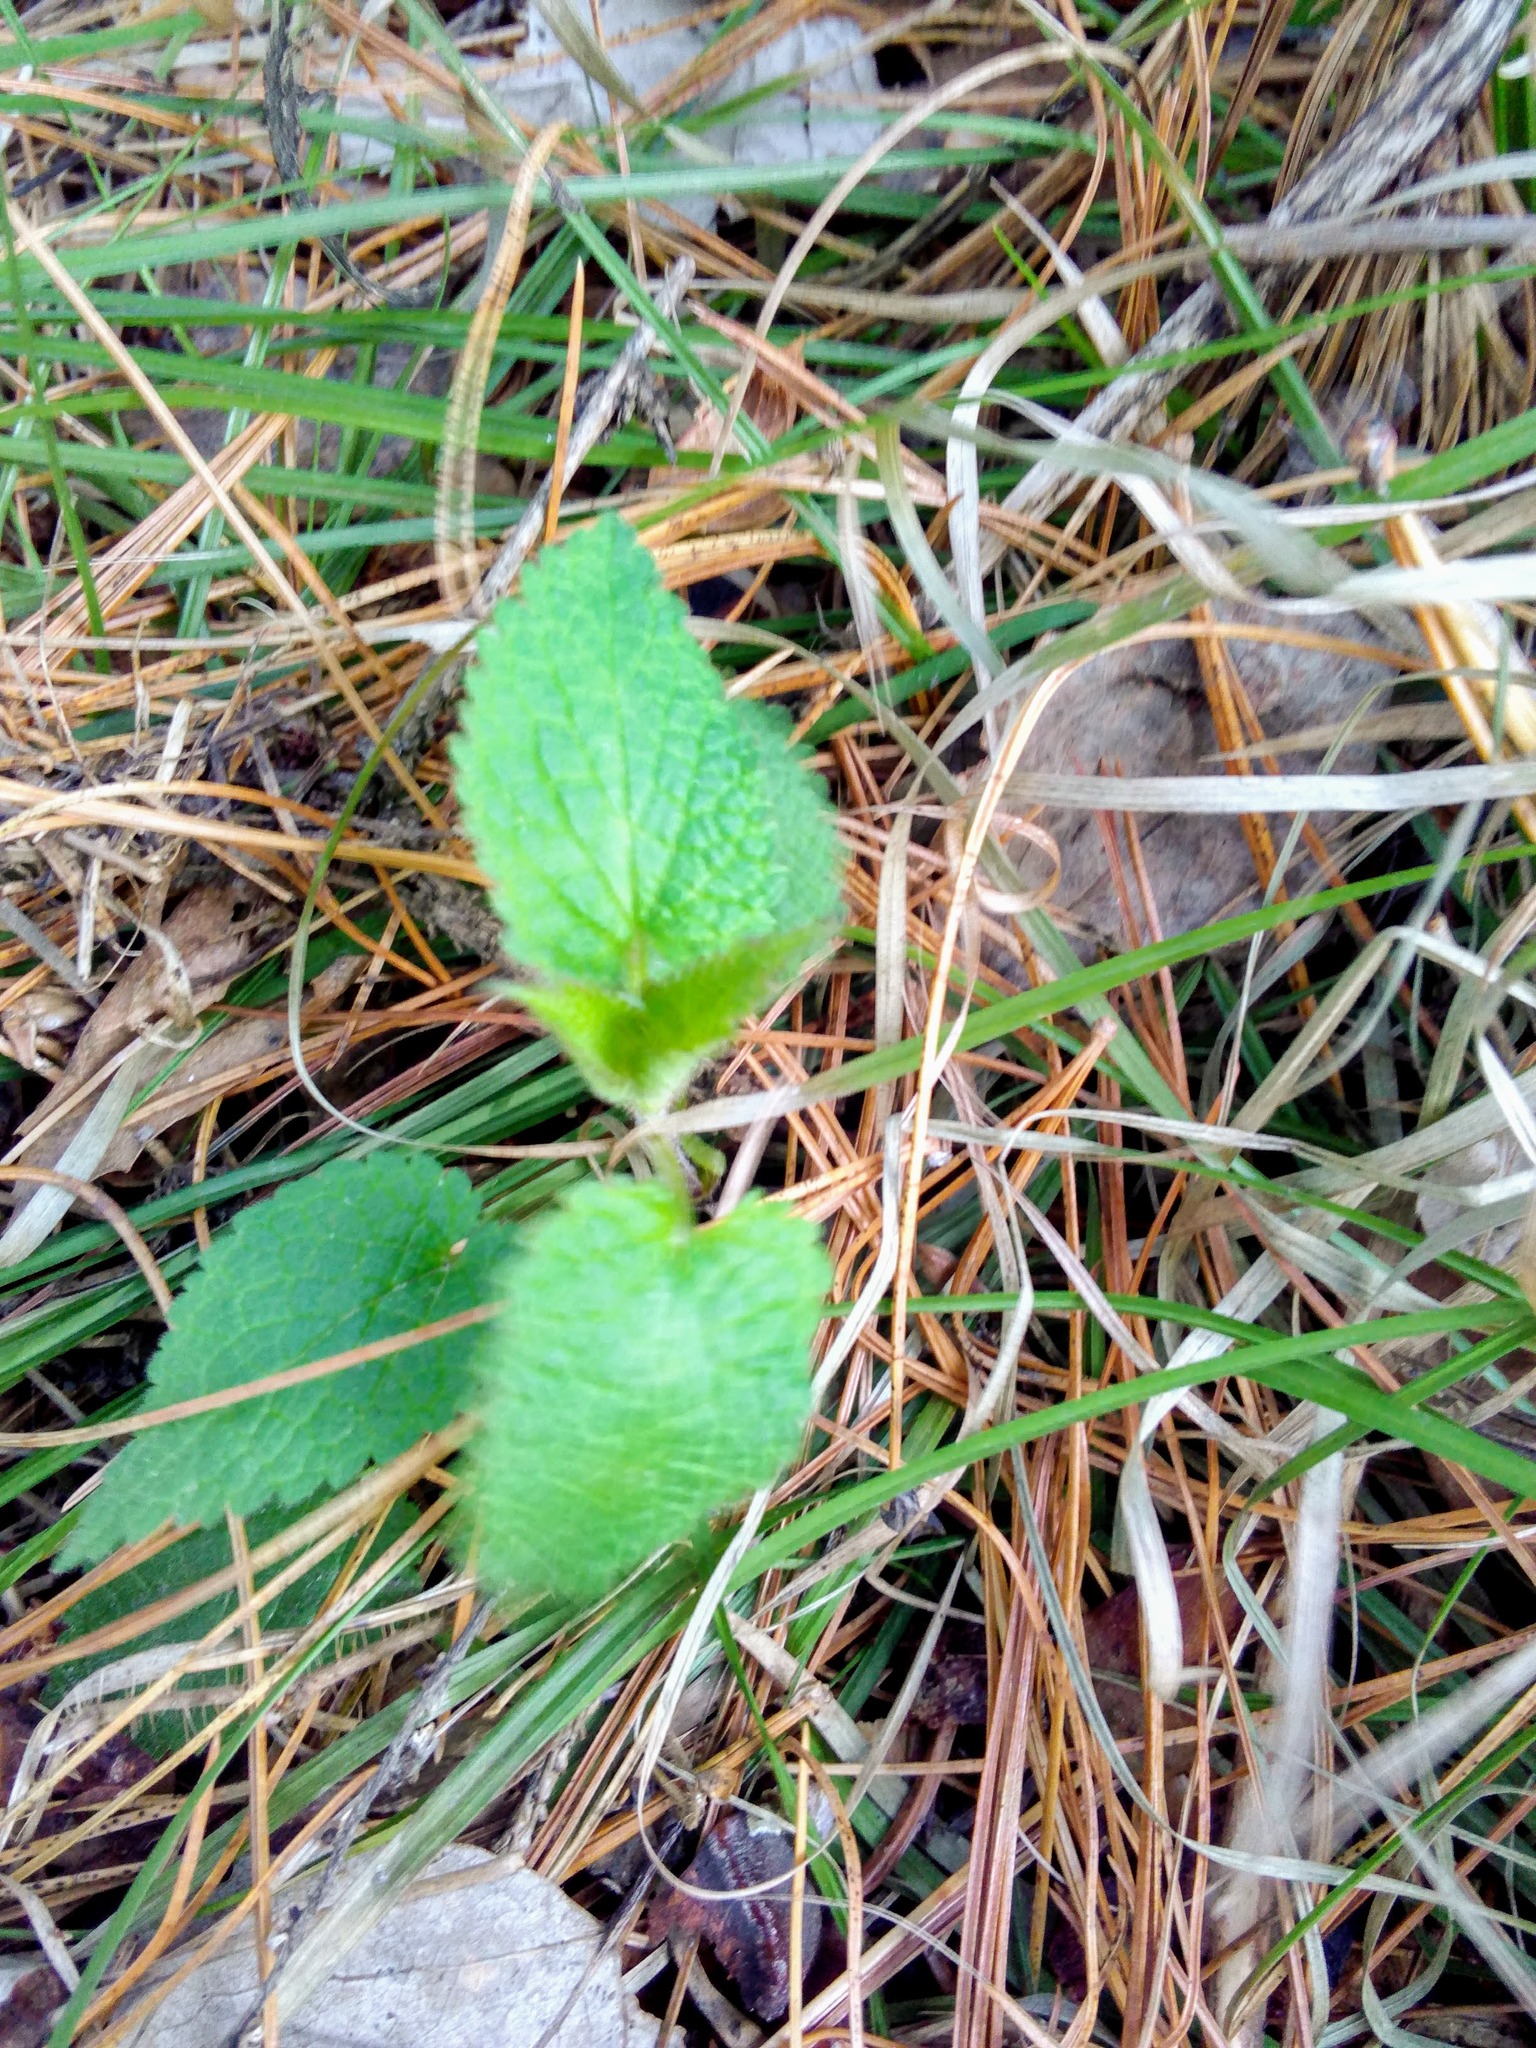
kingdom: Plantae
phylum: Tracheophyta
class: Magnoliopsida
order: Lamiales
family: Lamiaceae
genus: Lamium
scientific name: Lamium album
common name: White dead-nettle
